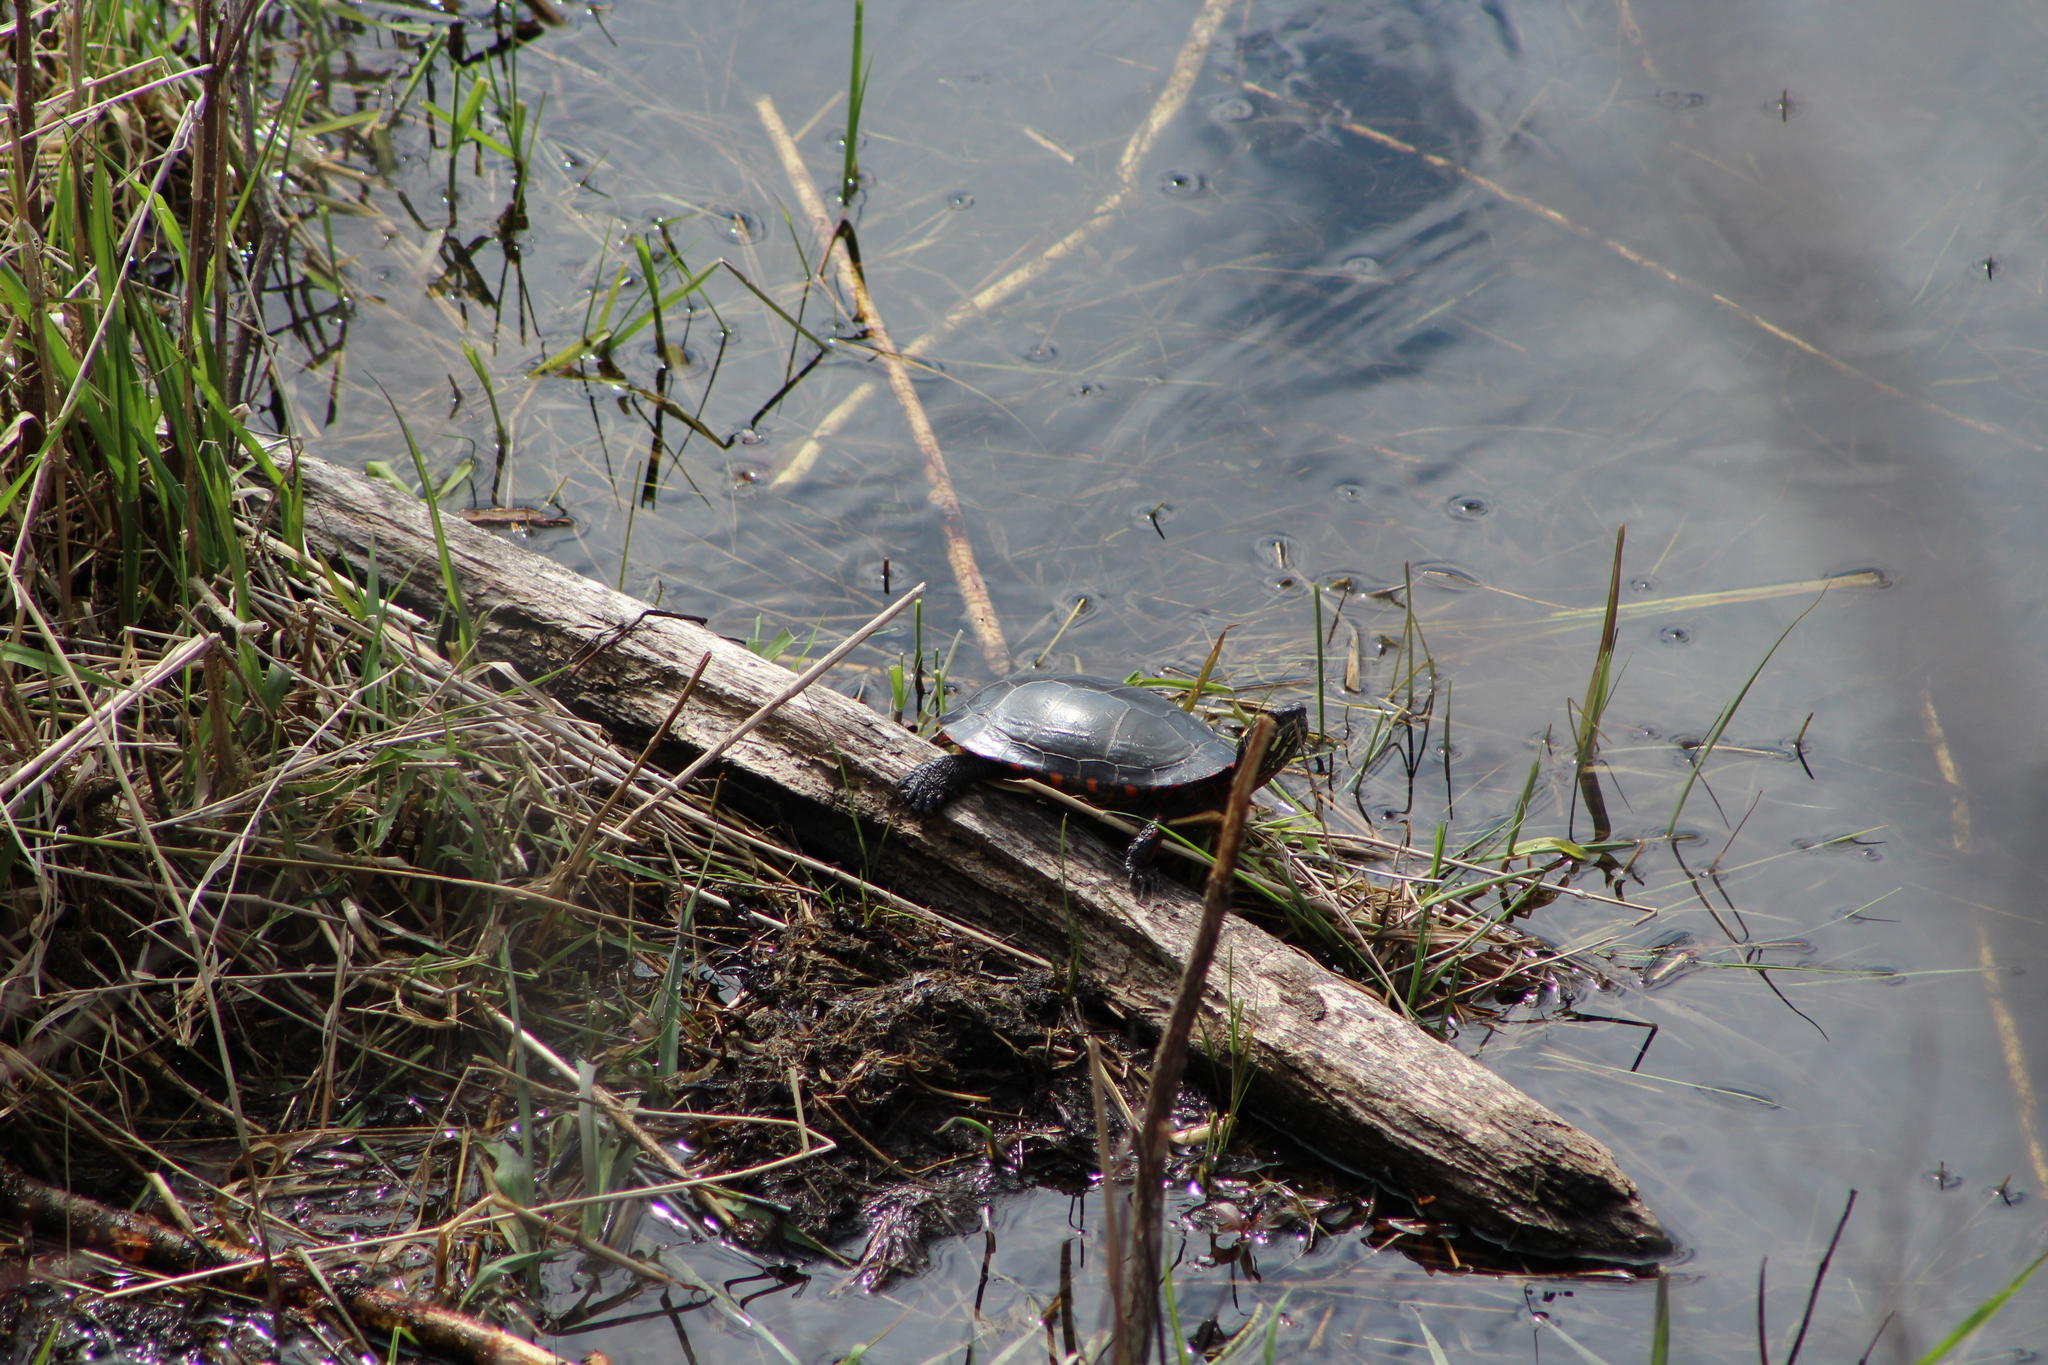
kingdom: Animalia
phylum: Chordata
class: Testudines
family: Emydidae
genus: Chrysemys
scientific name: Chrysemys picta
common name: Painted turtle
